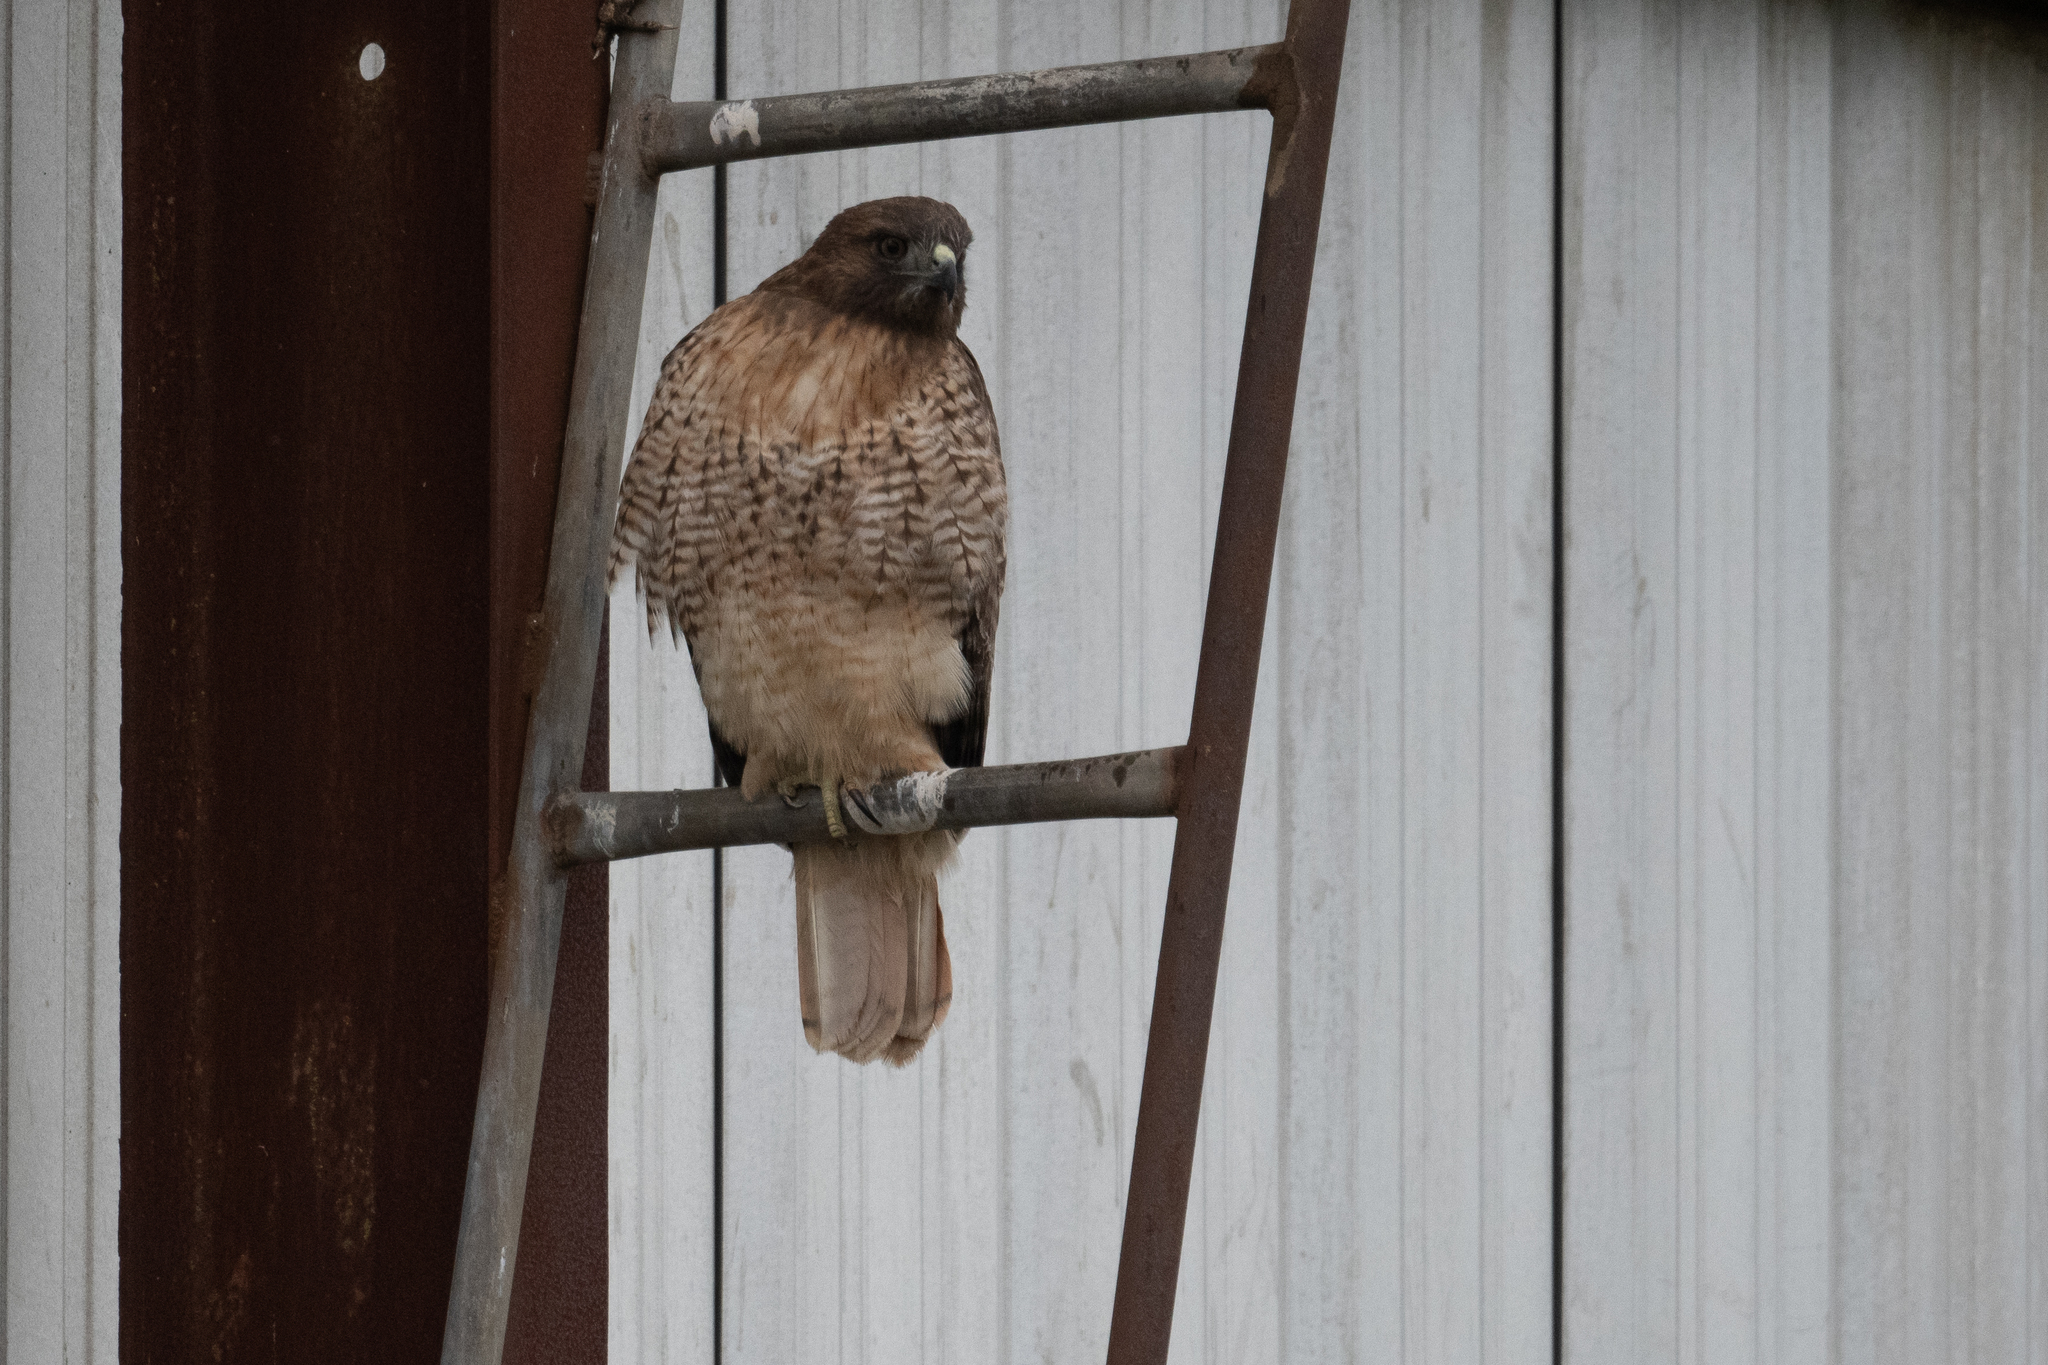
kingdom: Animalia
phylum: Chordata
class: Aves
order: Accipitriformes
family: Accipitridae
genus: Buteo
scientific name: Buteo jamaicensis
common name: Red-tailed hawk
